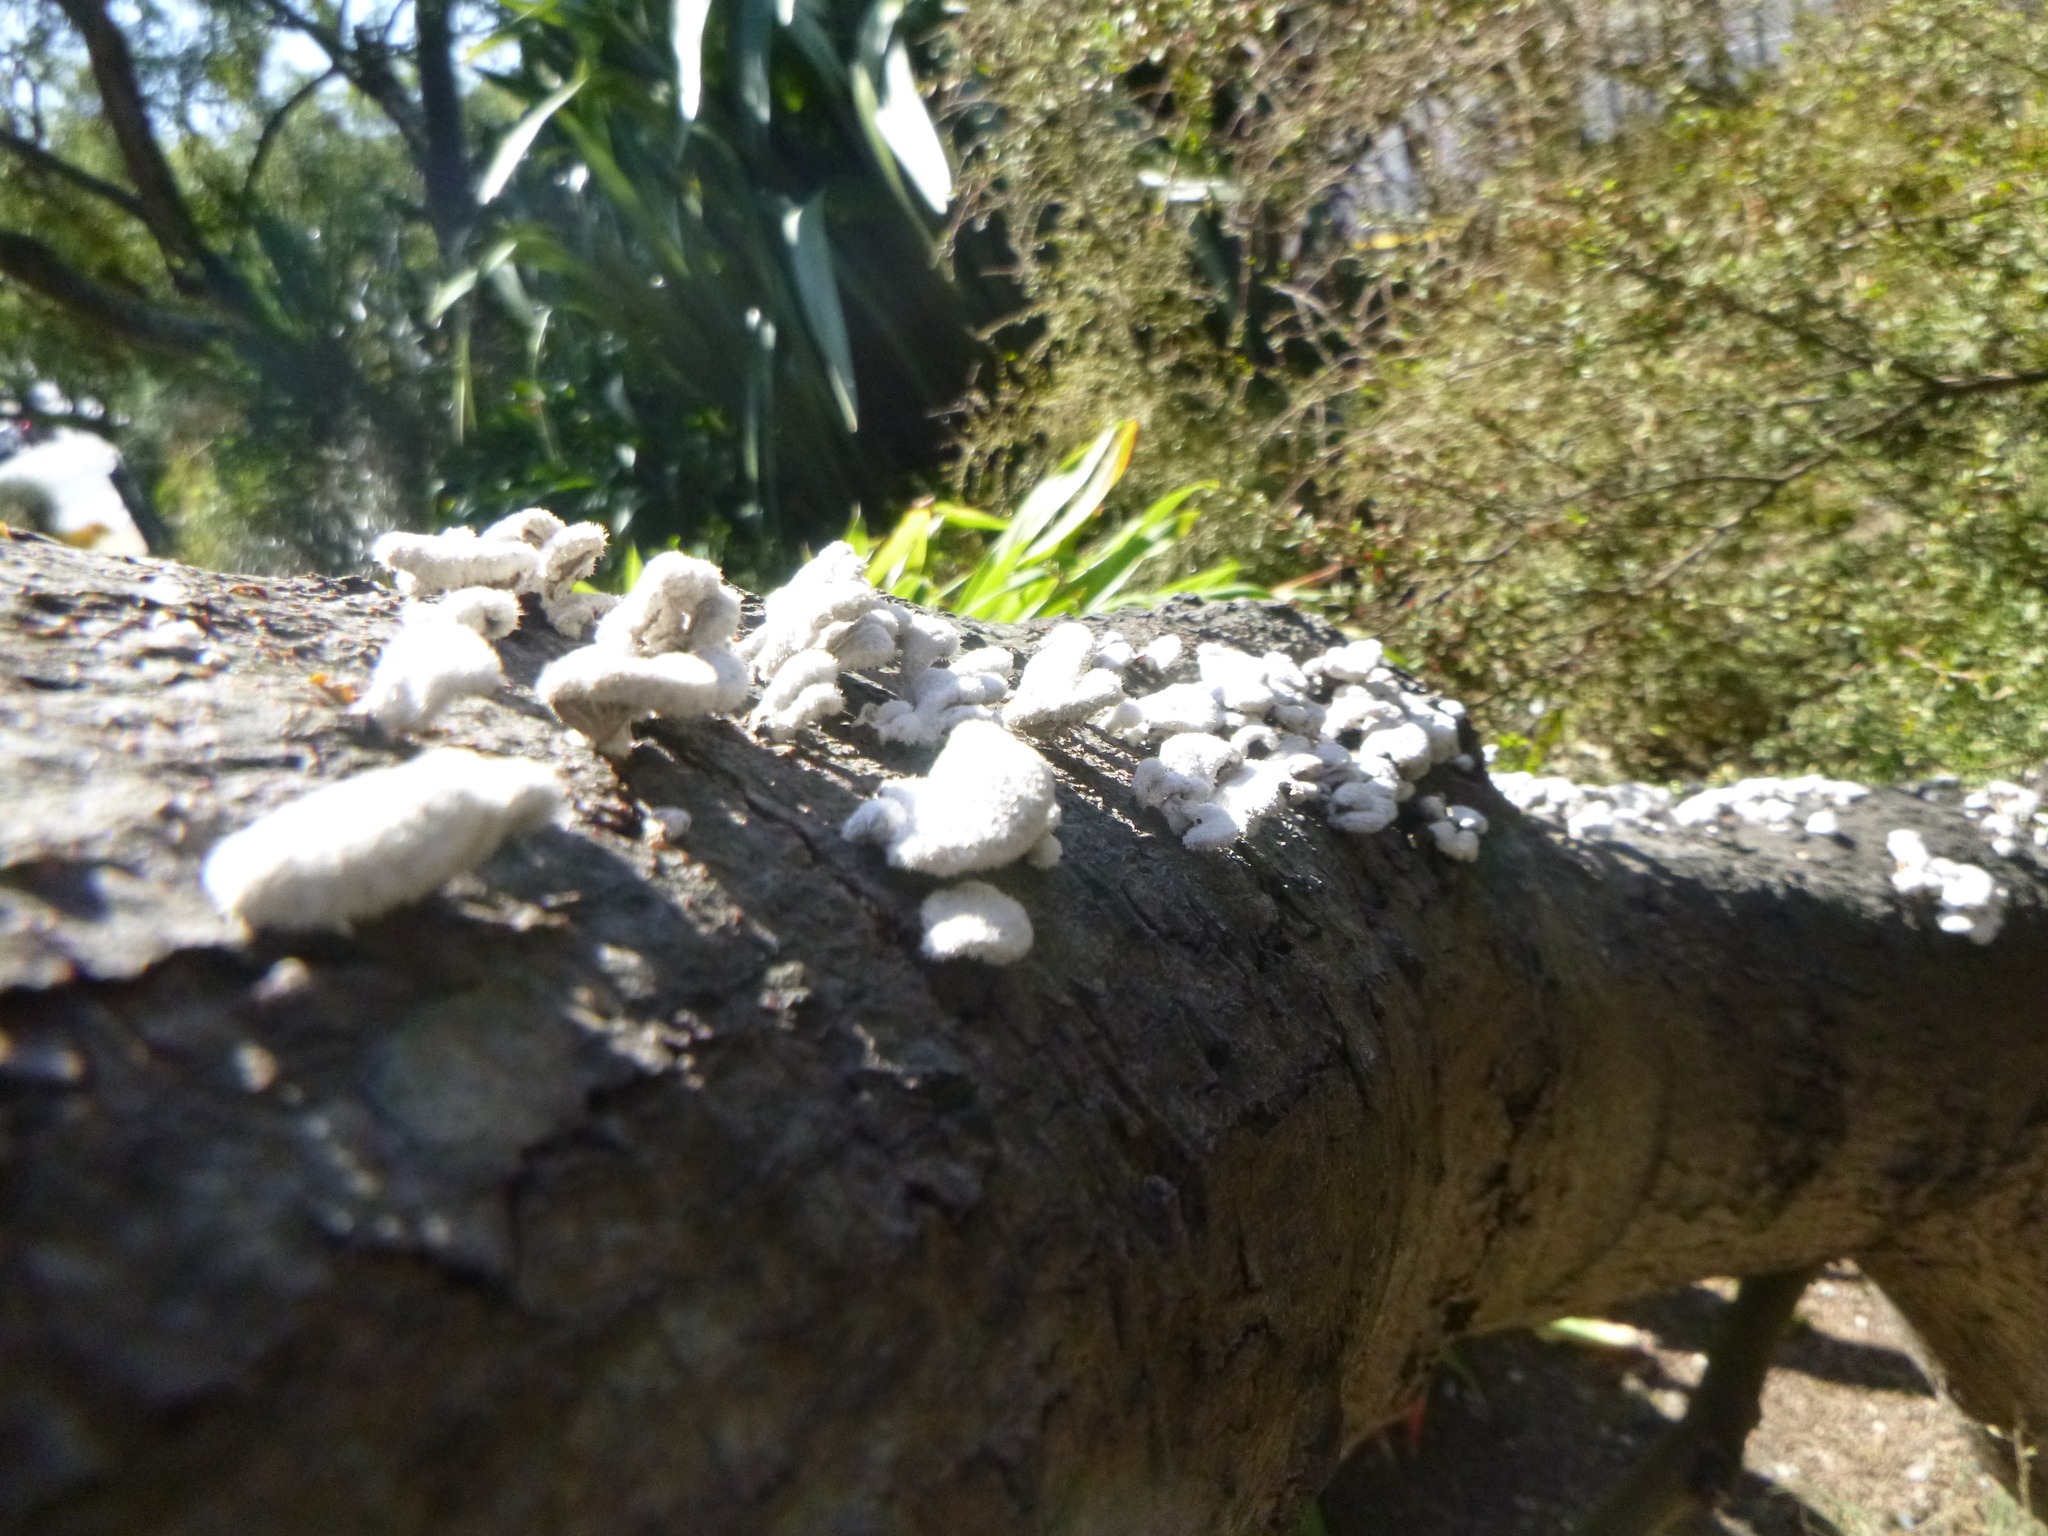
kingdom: Fungi
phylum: Basidiomycota
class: Agaricomycetes
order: Agaricales
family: Schizophyllaceae
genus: Schizophyllum
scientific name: Schizophyllum commune
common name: Common porecrust
